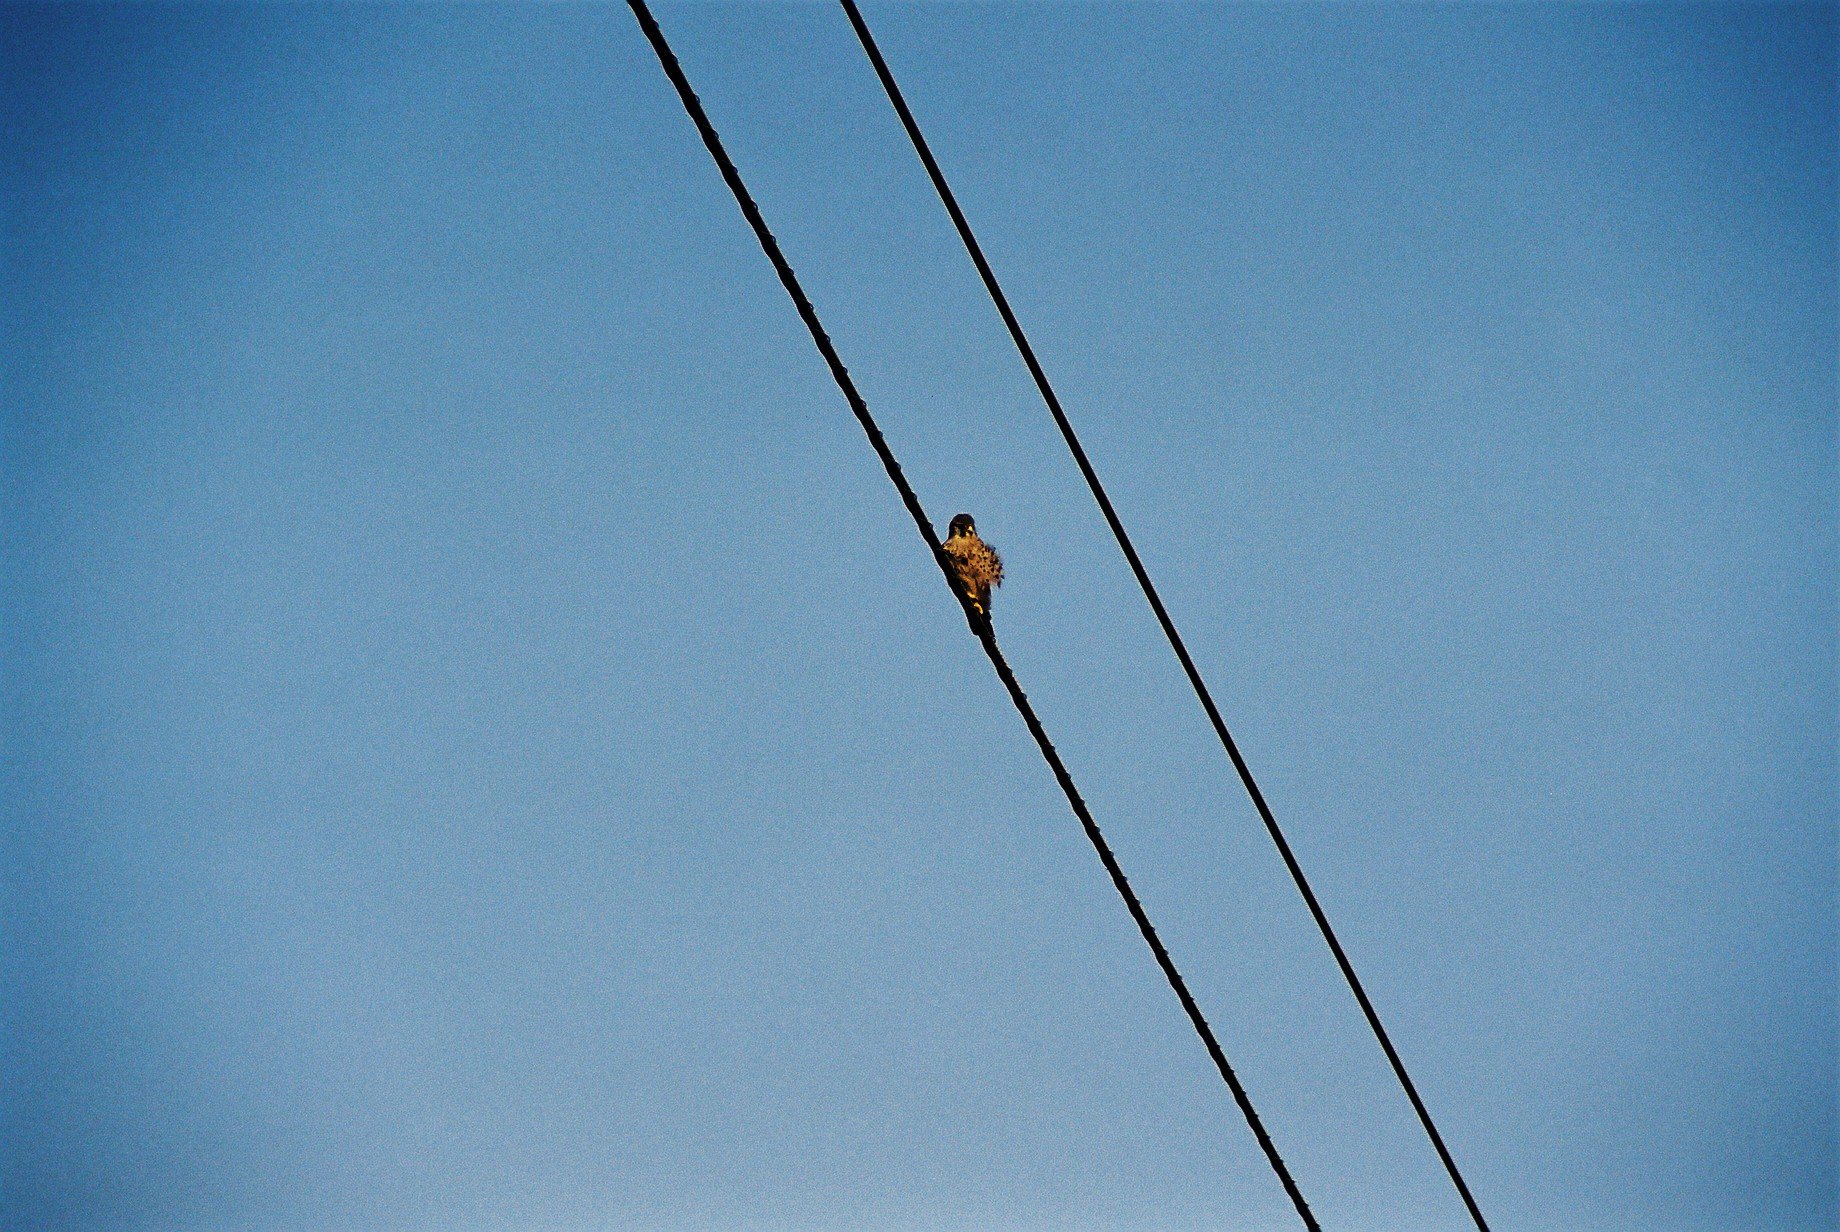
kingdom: Animalia
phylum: Chordata
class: Aves
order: Falconiformes
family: Falconidae
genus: Falco
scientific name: Falco tinnunculus
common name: Common kestrel
